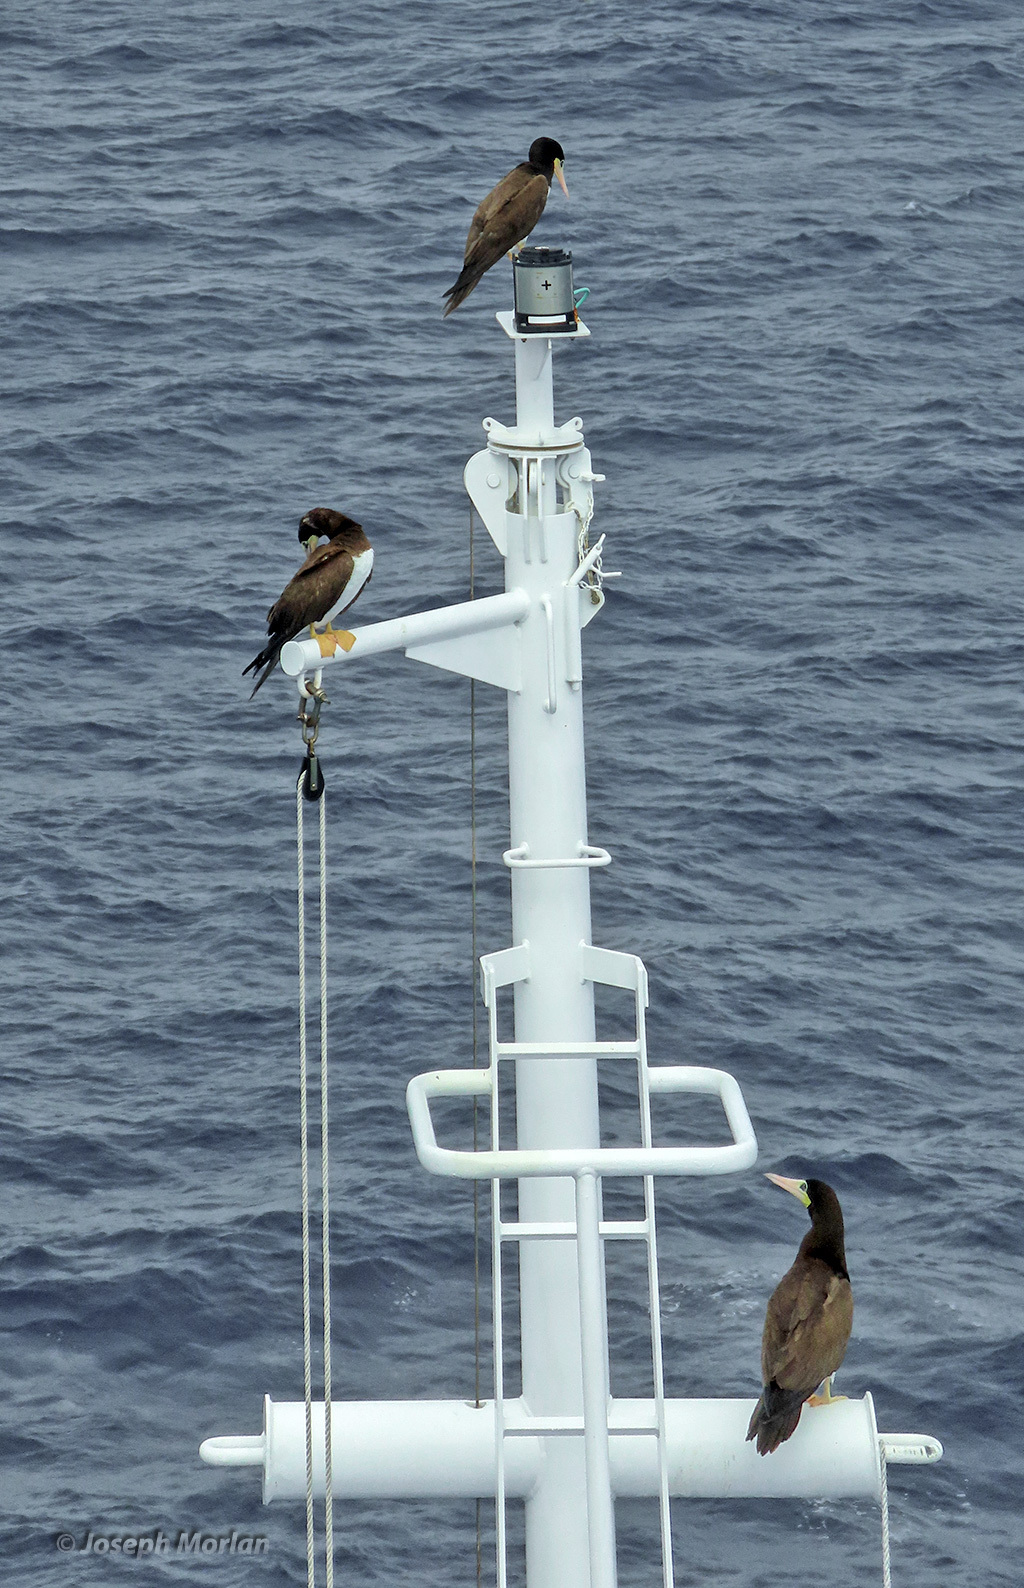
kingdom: Animalia
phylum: Chordata
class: Aves
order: Suliformes
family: Sulidae
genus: Sula
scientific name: Sula leucogaster
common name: Brown booby
